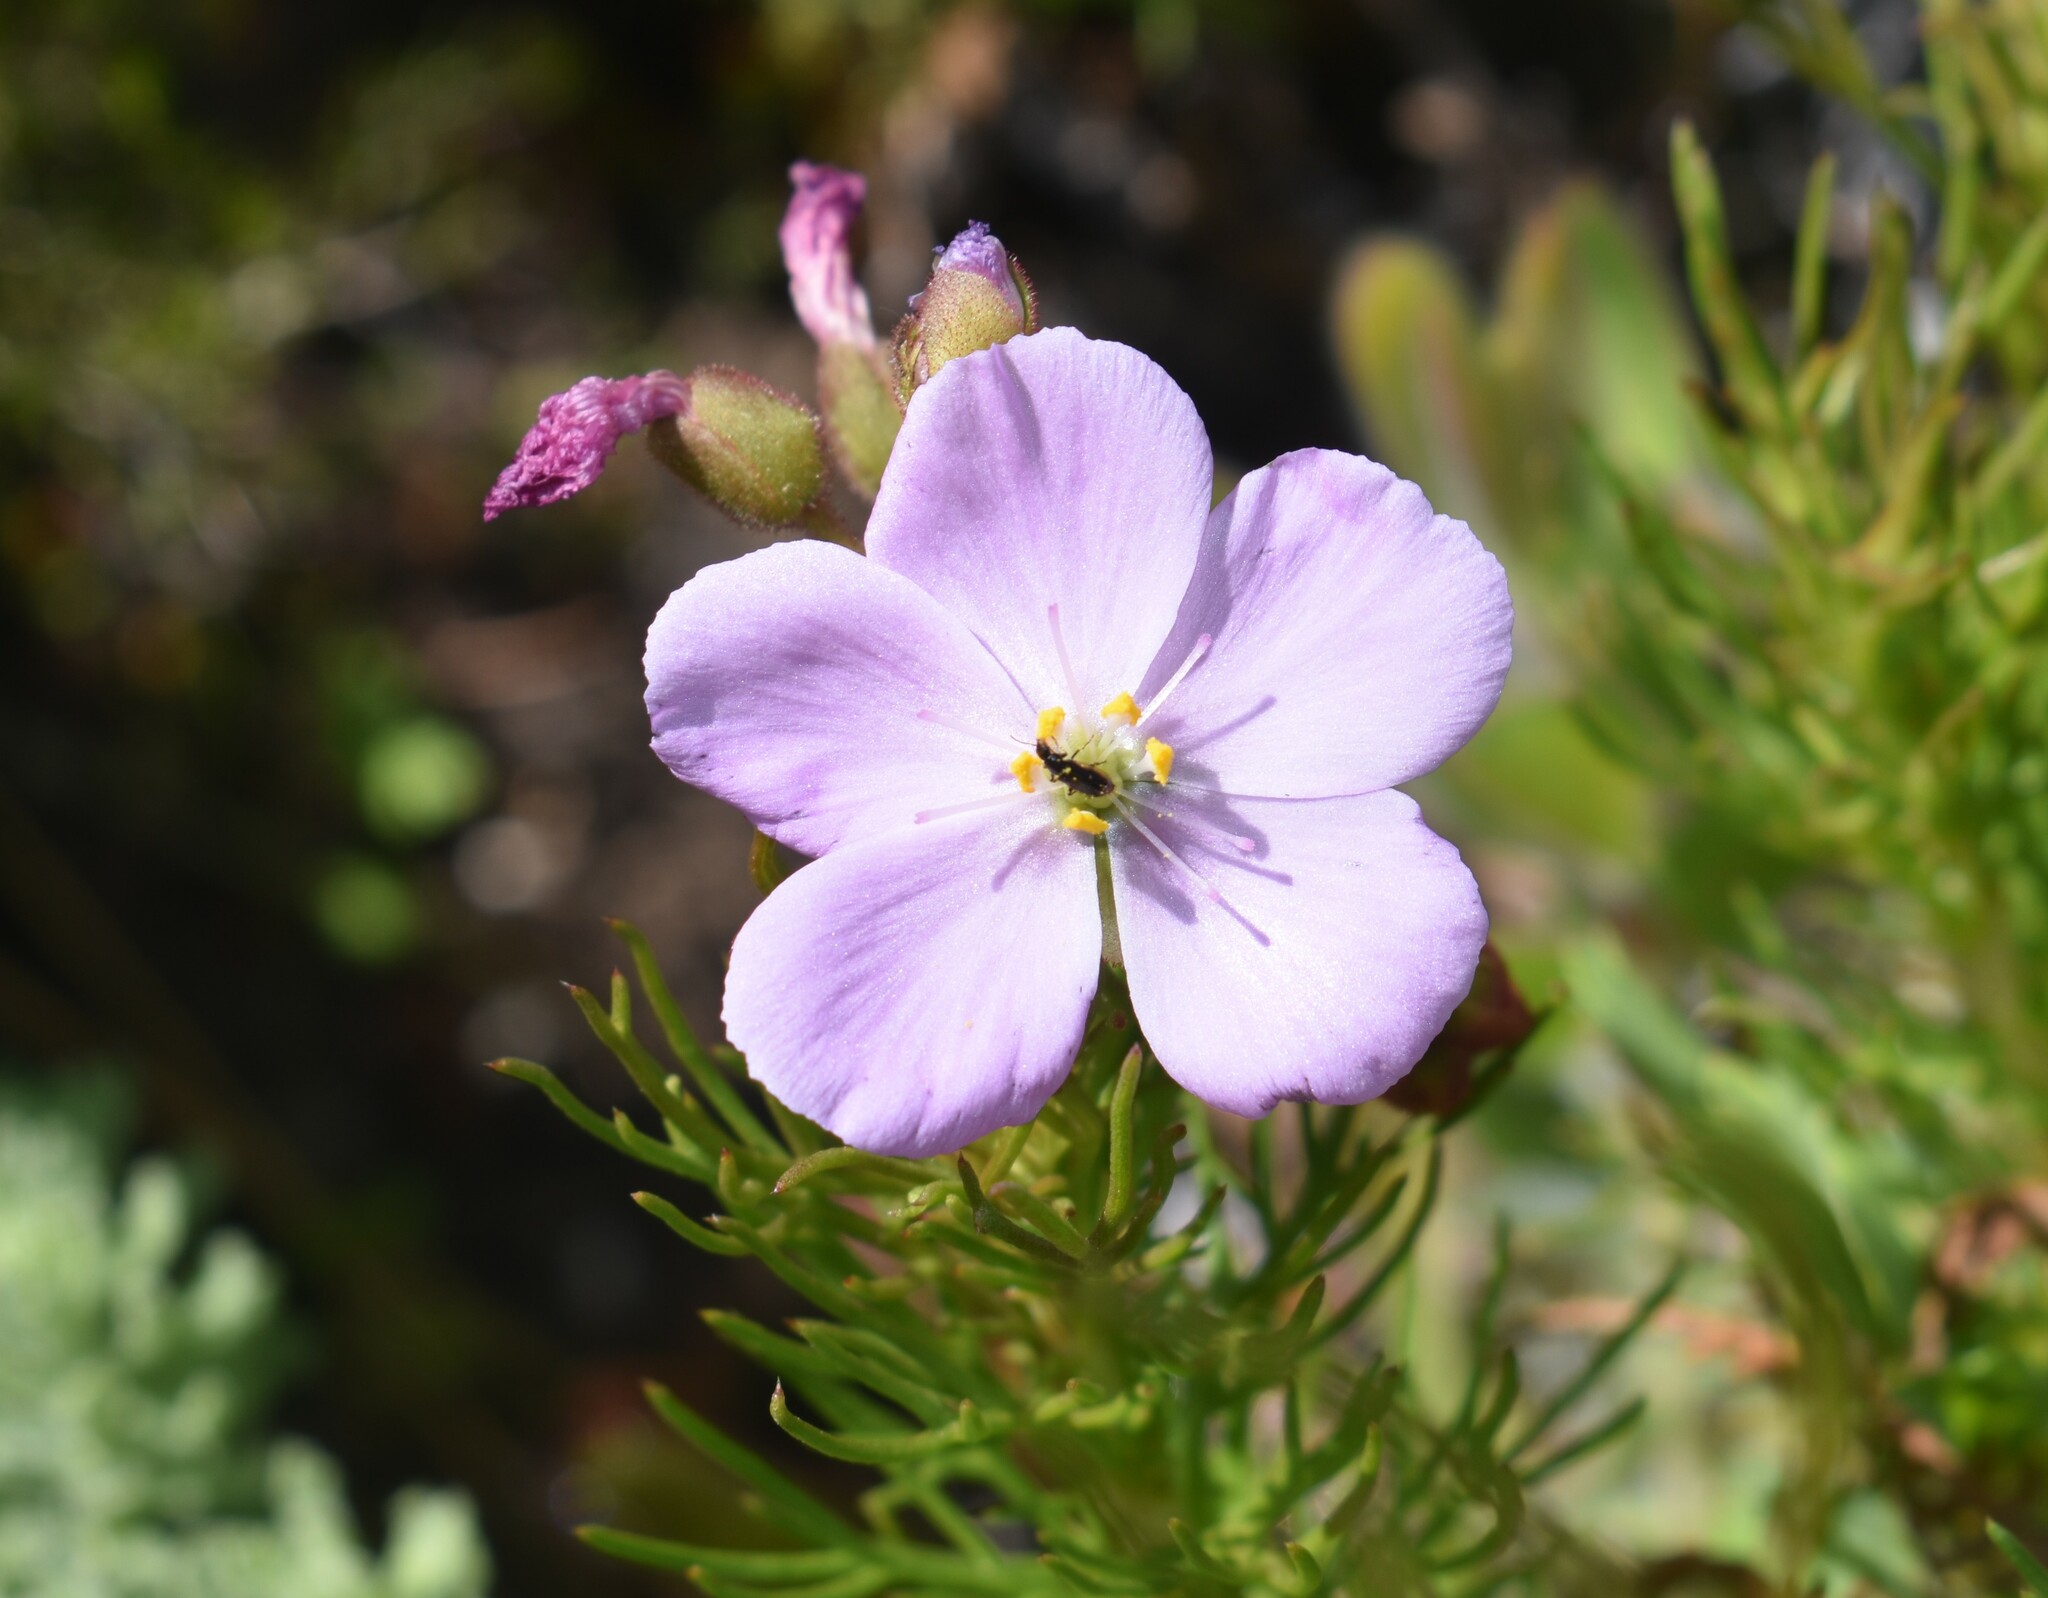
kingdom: Plantae
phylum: Tracheophyta
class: Magnoliopsida
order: Caryophyllales
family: Droseraceae
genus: Drosera
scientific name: Drosera hilaris
